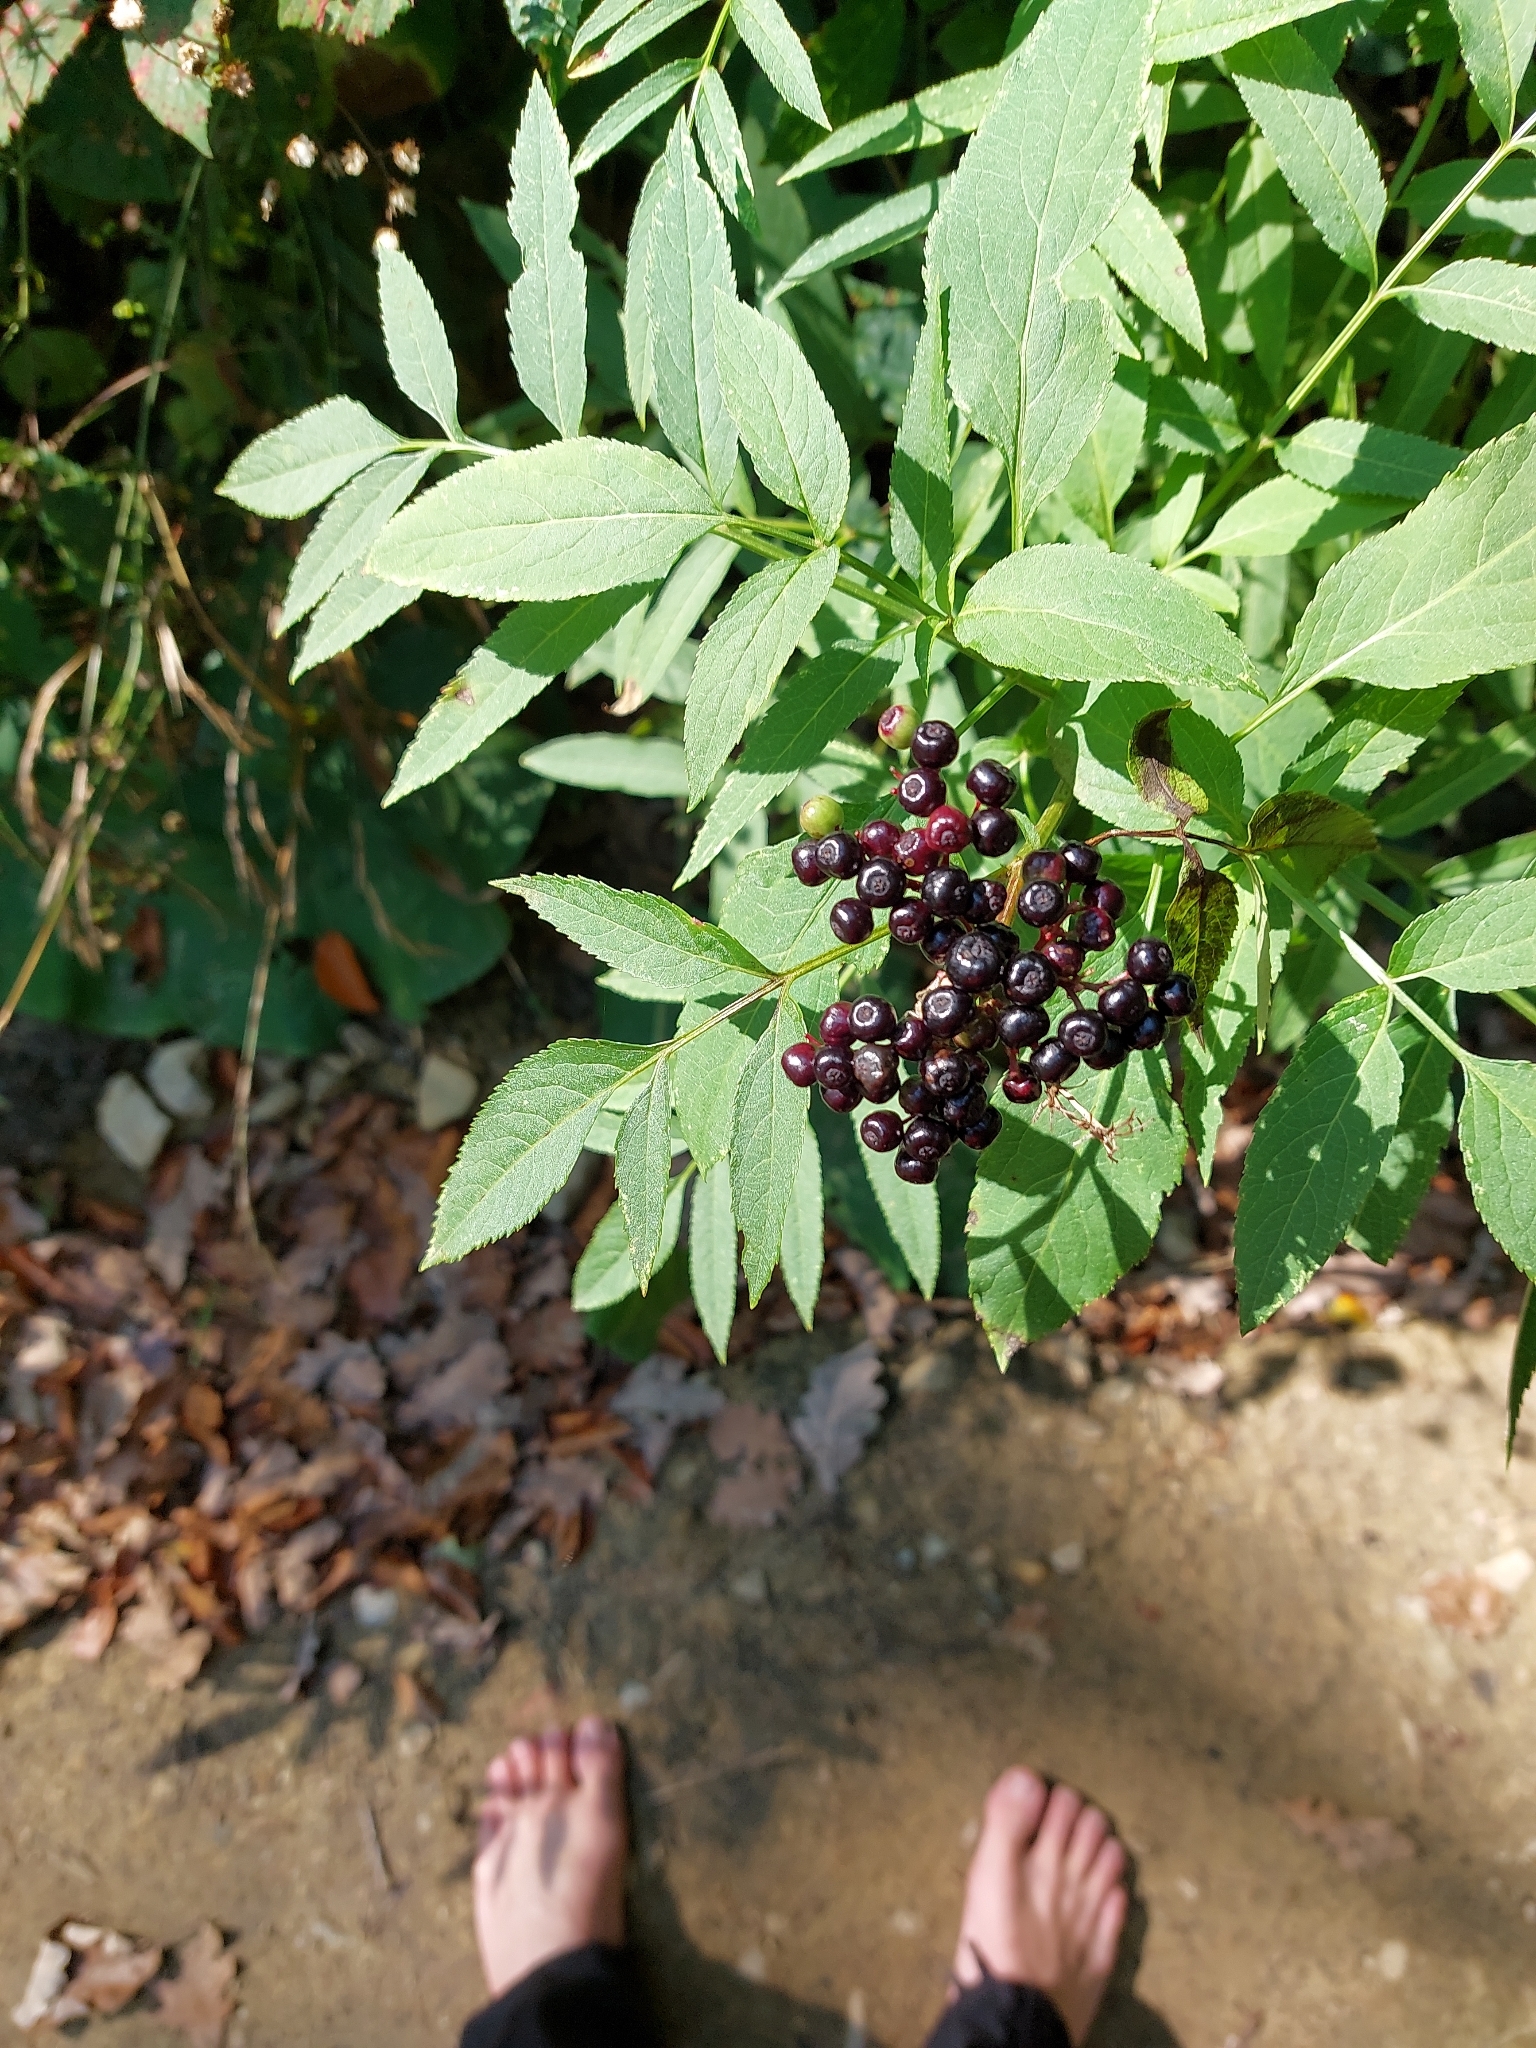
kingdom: Plantae
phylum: Tracheophyta
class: Magnoliopsida
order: Dipsacales
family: Viburnaceae
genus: Sambucus
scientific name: Sambucus ebulus
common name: Dwarf elder
